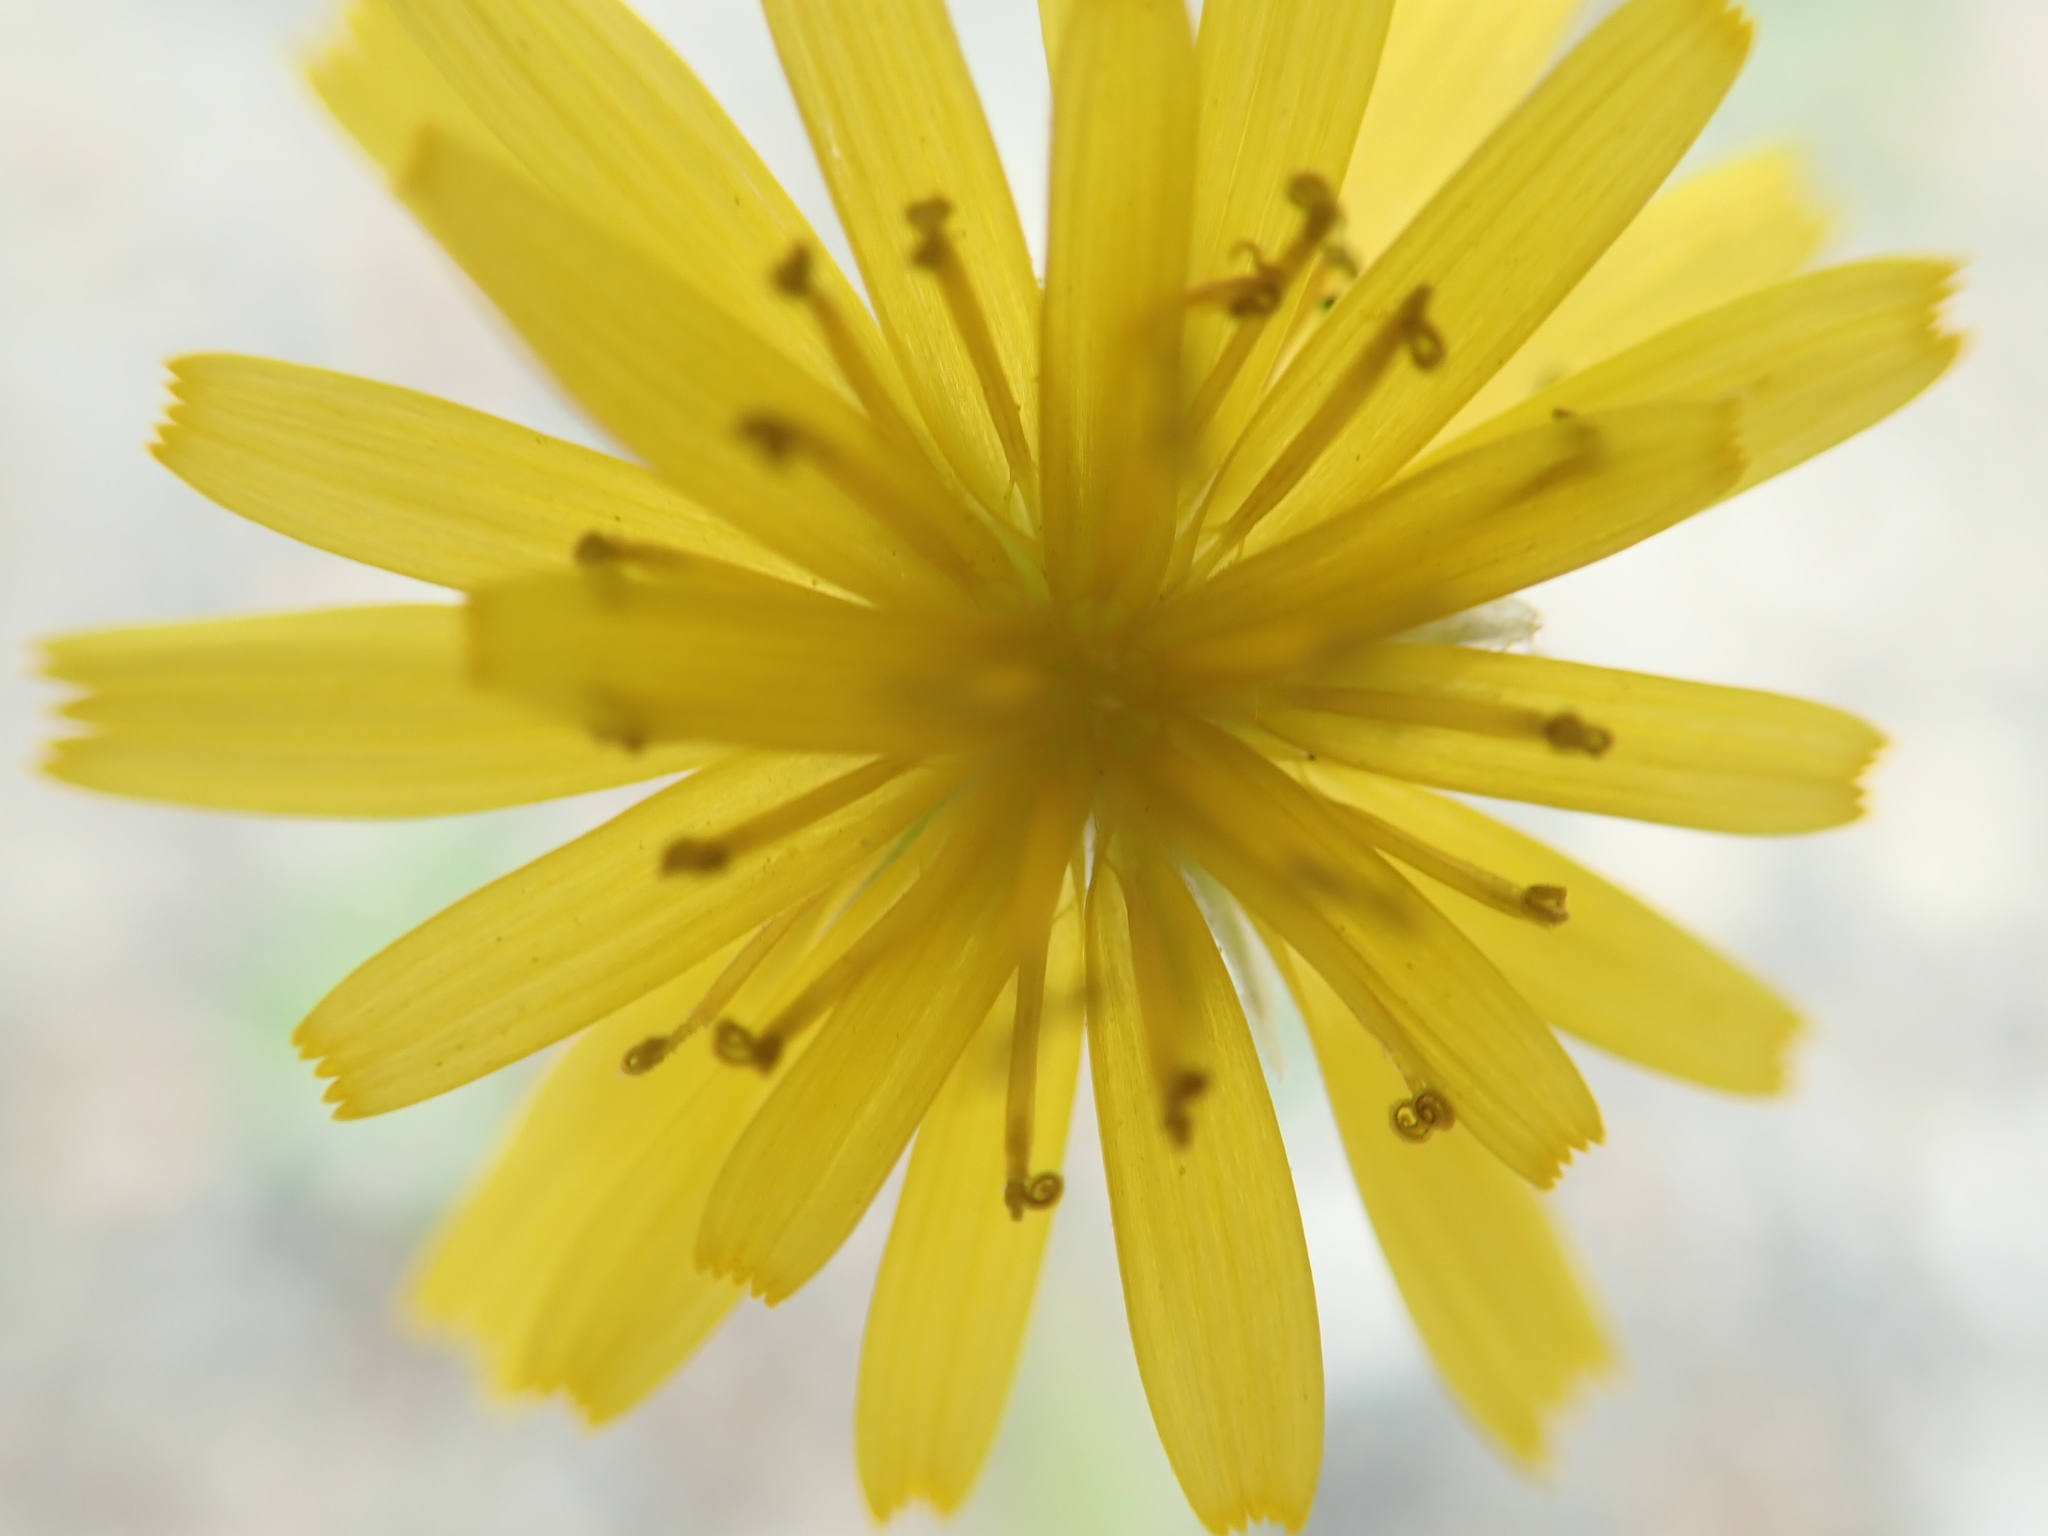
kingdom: Plantae
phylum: Tracheophyta
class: Magnoliopsida
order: Asterales
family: Asteraceae
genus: Crepis
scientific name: Crepis tectorum
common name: Narrow-leaved hawk's-beard
